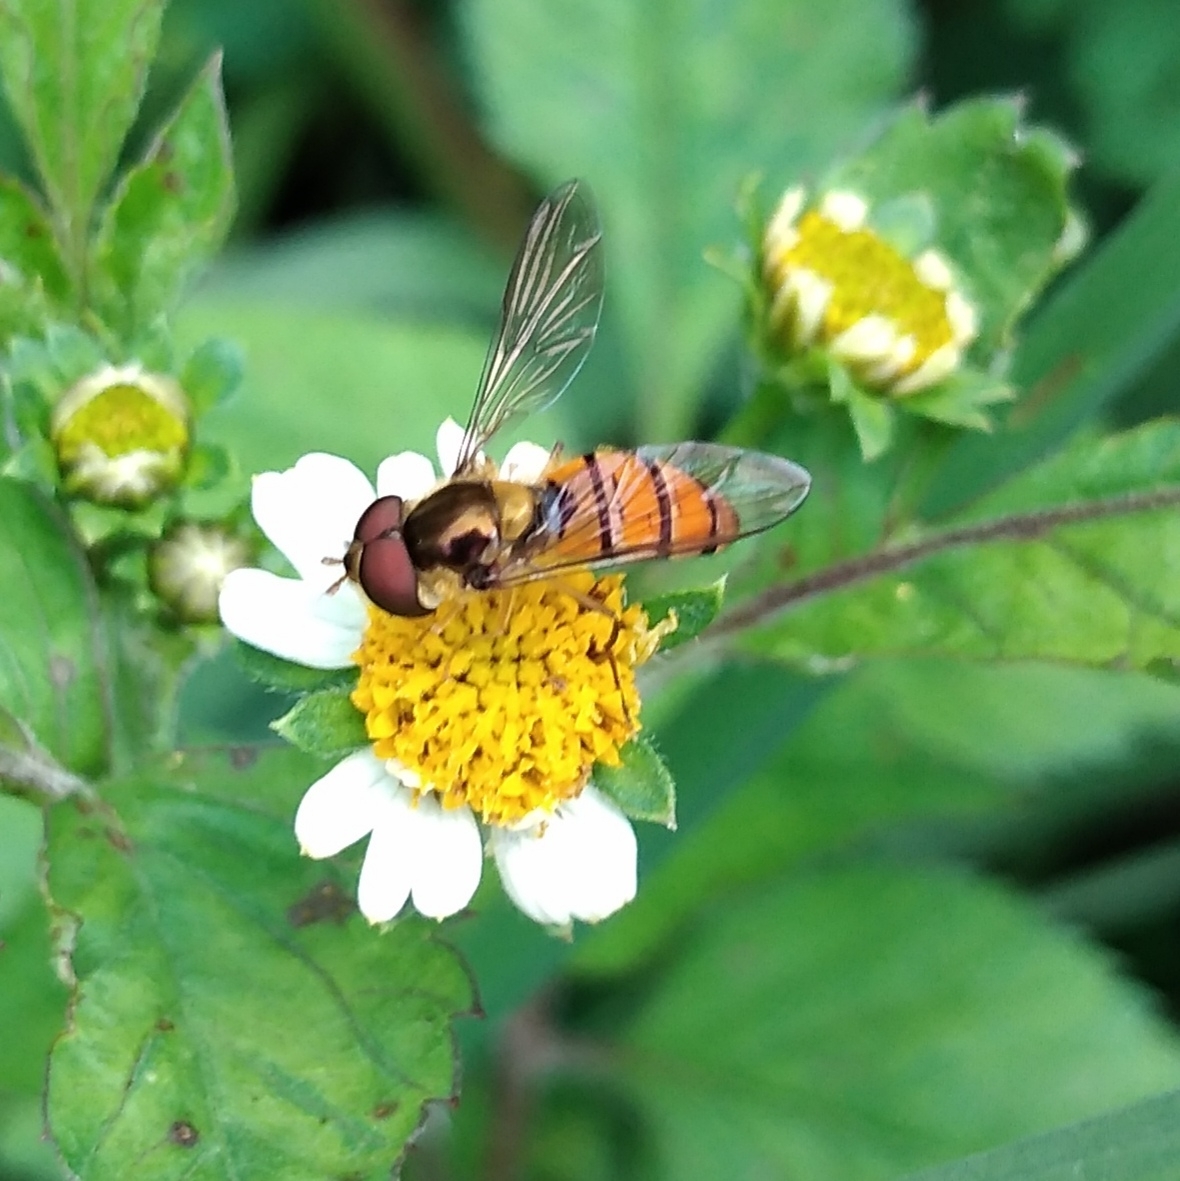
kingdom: Animalia
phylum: Arthropoda
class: Insecta
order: Diptera
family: Syrphidae
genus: Episyrphus
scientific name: Episyrphus trisectus
